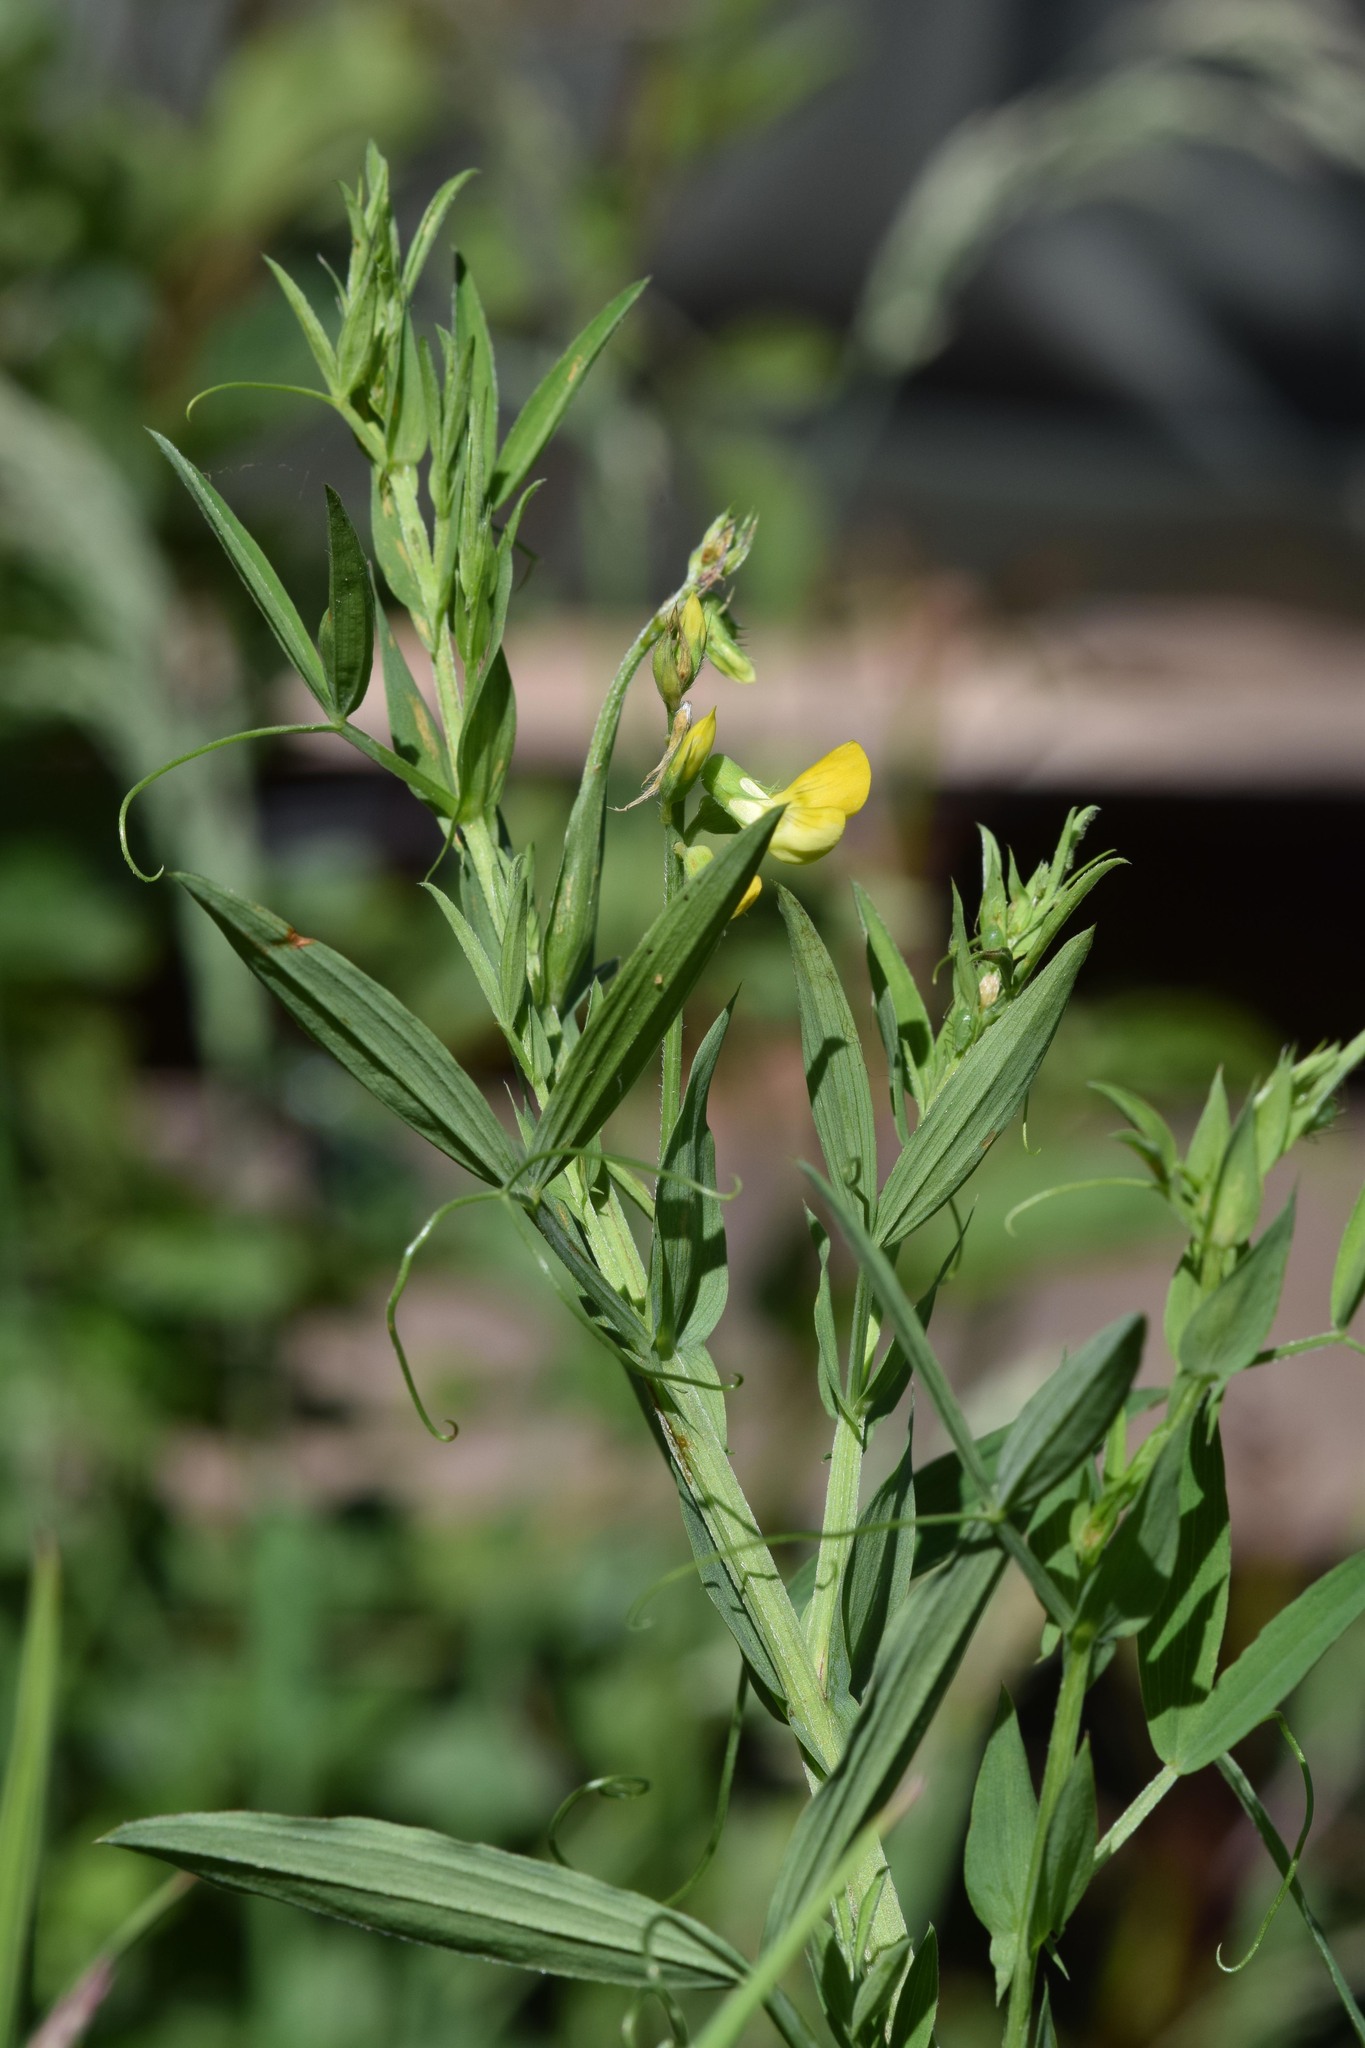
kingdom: Plantae
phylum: Tracheophyta
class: Magnoliopsida
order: Fabales
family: Fabaceae
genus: Lathyrus
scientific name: Lathyrus pratensis
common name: Meadow vetchling
